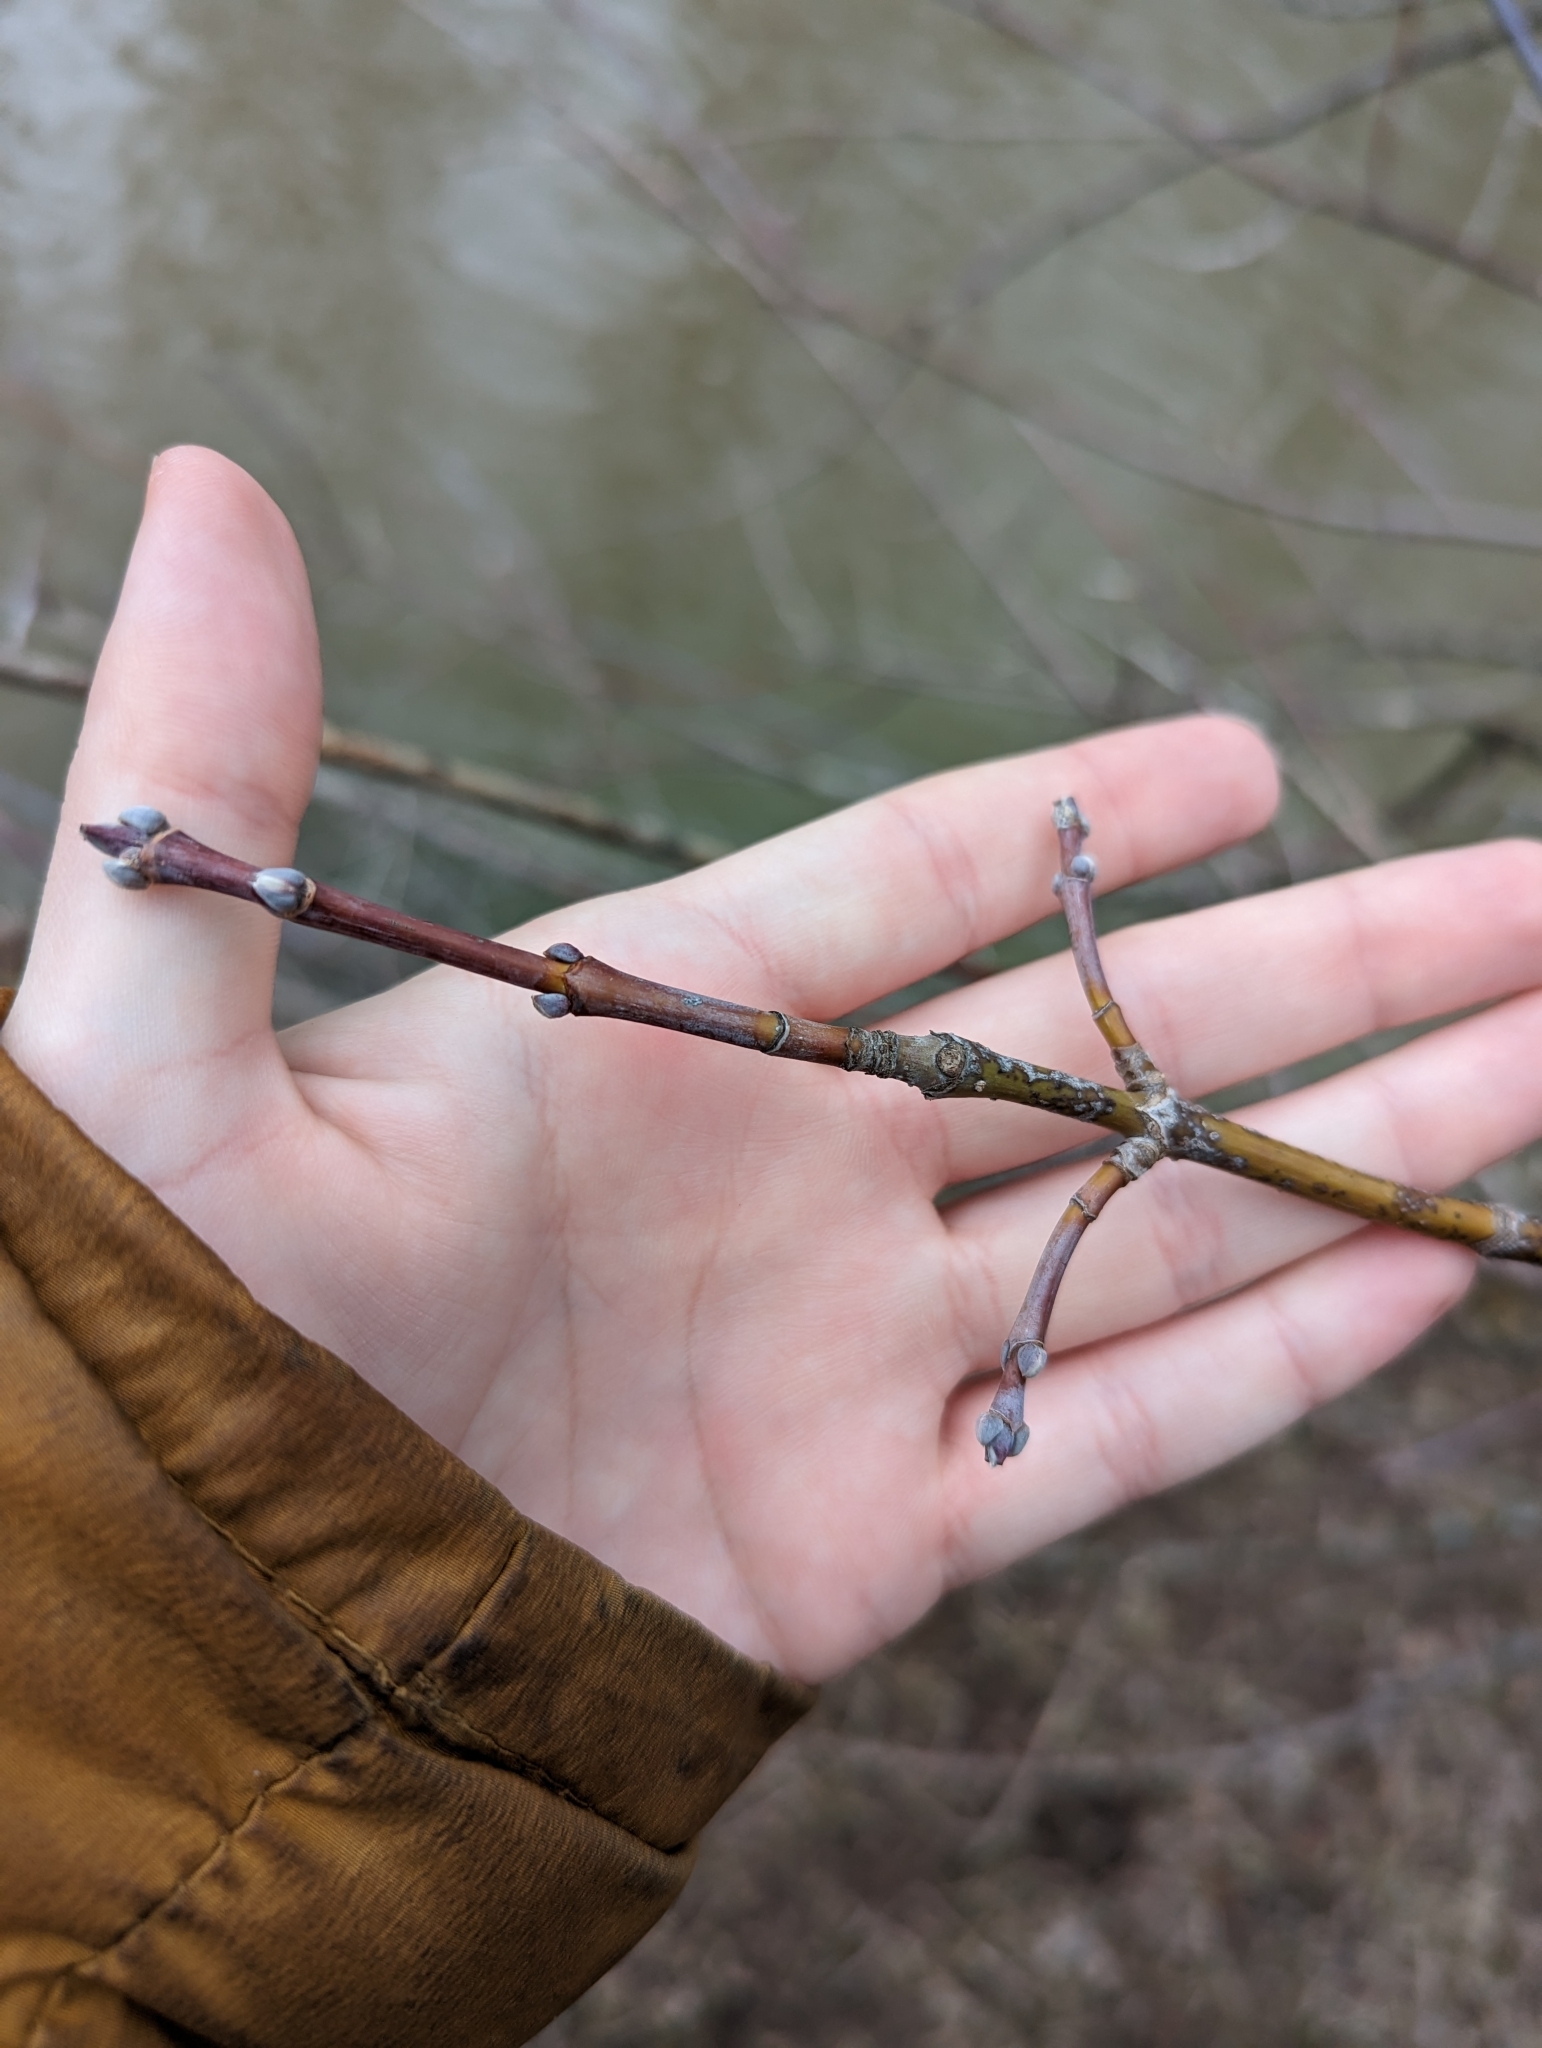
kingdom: Plantae
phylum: Tracheophyta
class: Magnoliopsida
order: Sapindales
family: Sapindaceae
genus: Acer
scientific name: Acer negundo
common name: Ashleaf maple
